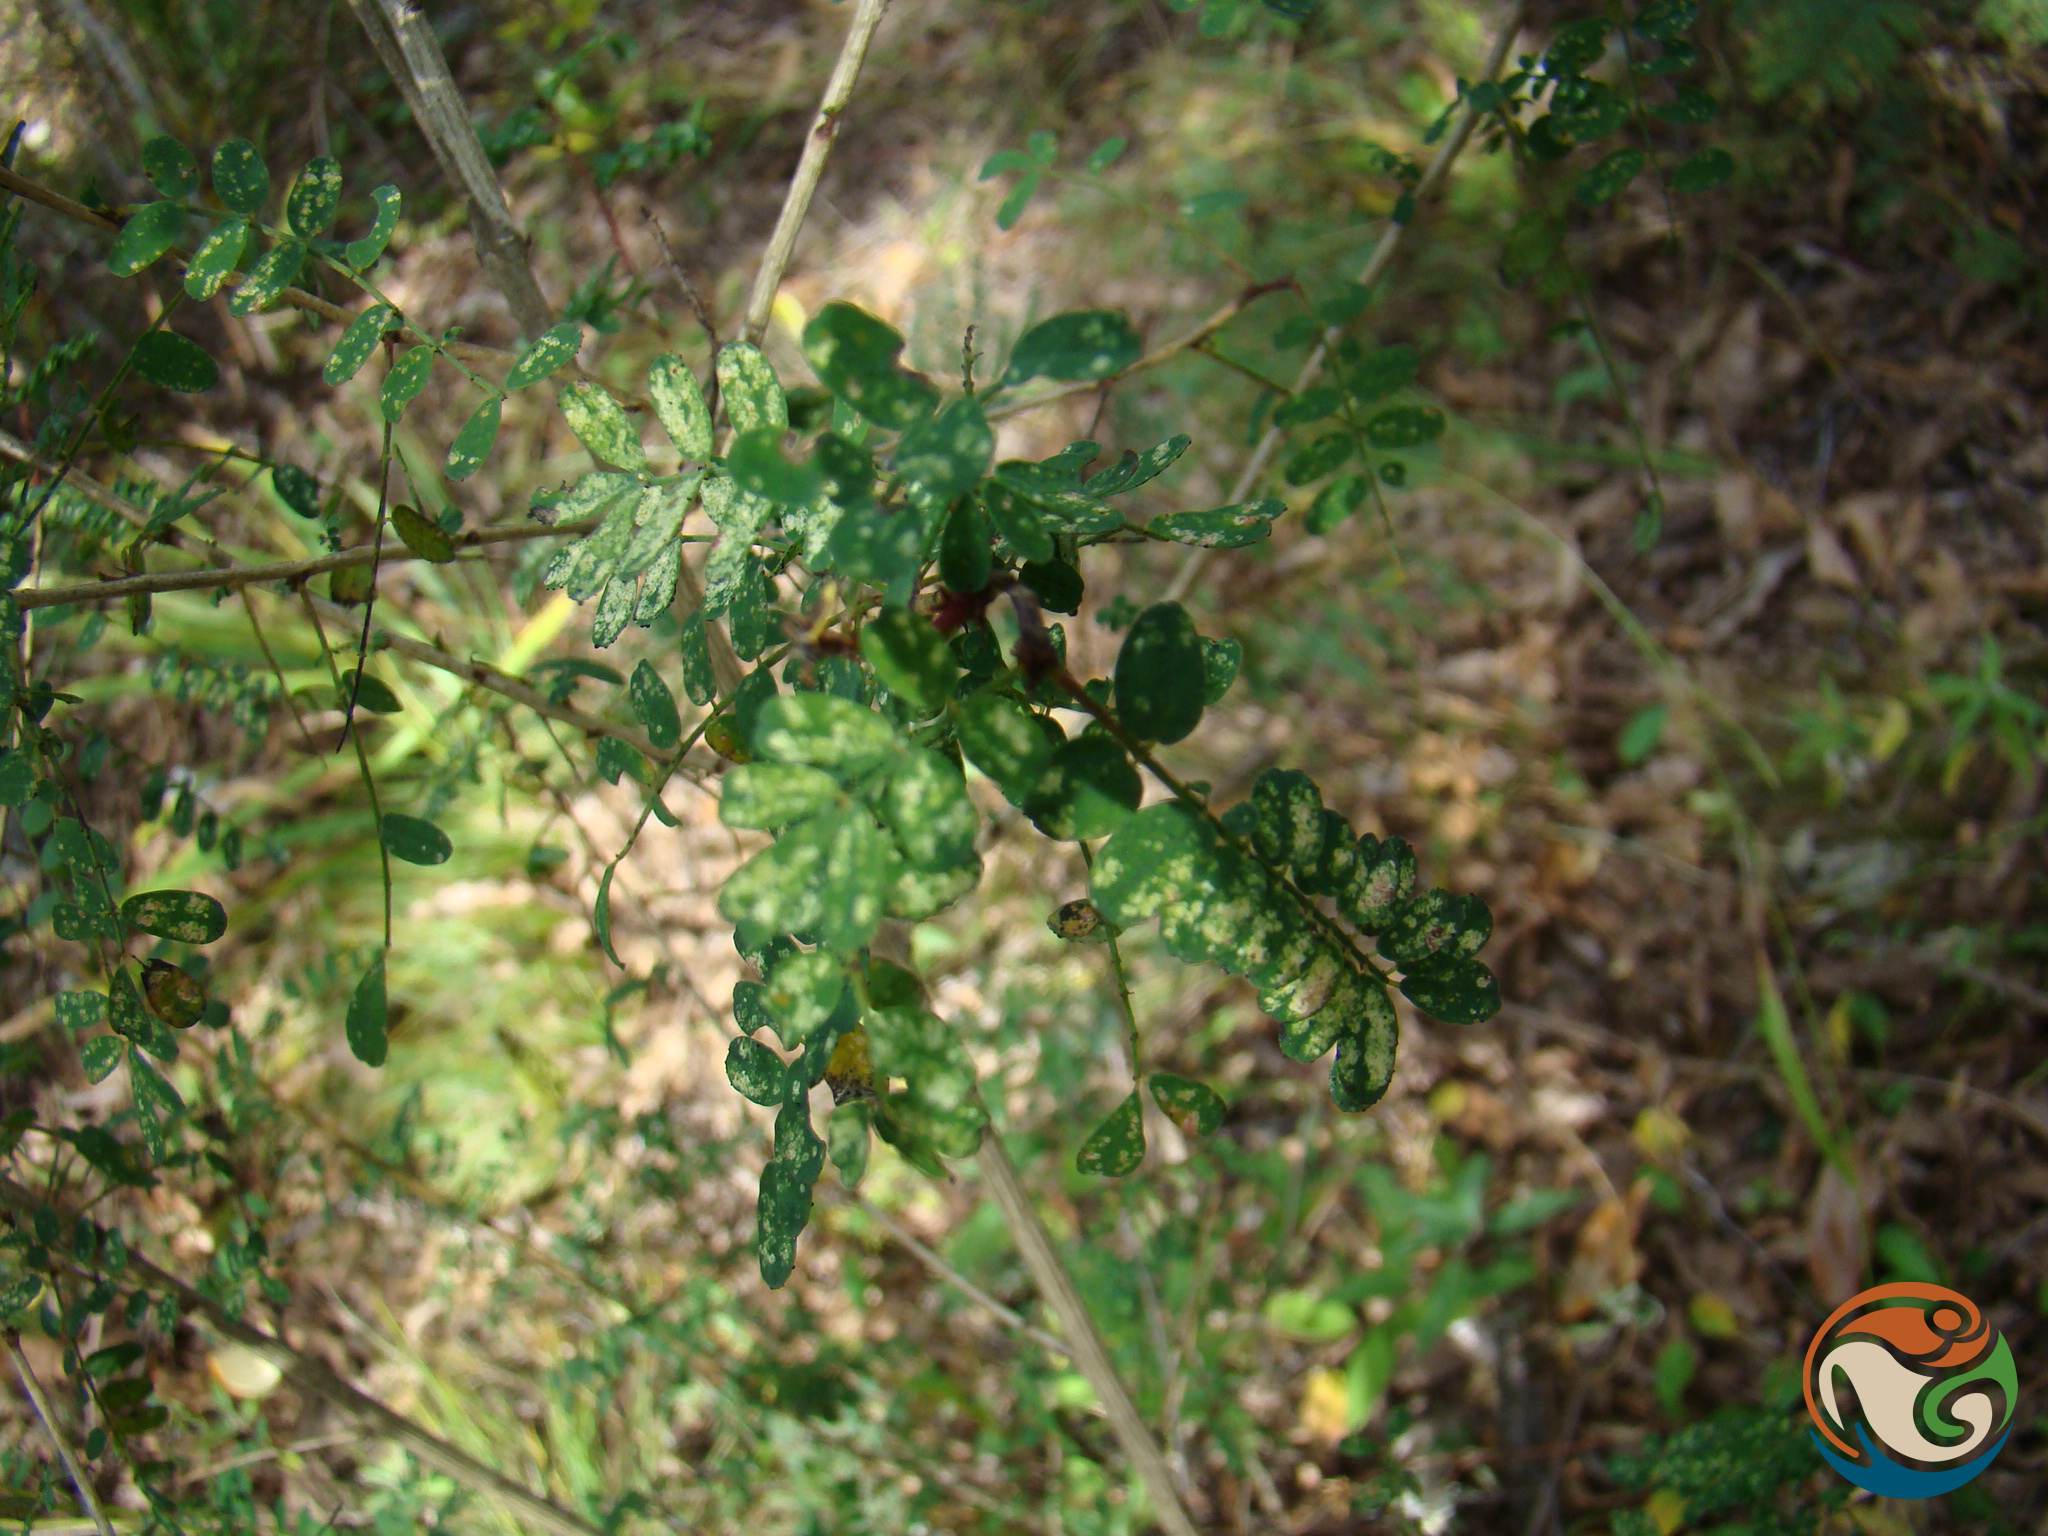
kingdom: Plantae
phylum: Tracheophyta
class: Magnoliopsida
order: Fabales
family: Fabaceae
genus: Dalea
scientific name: Dalea lutea
